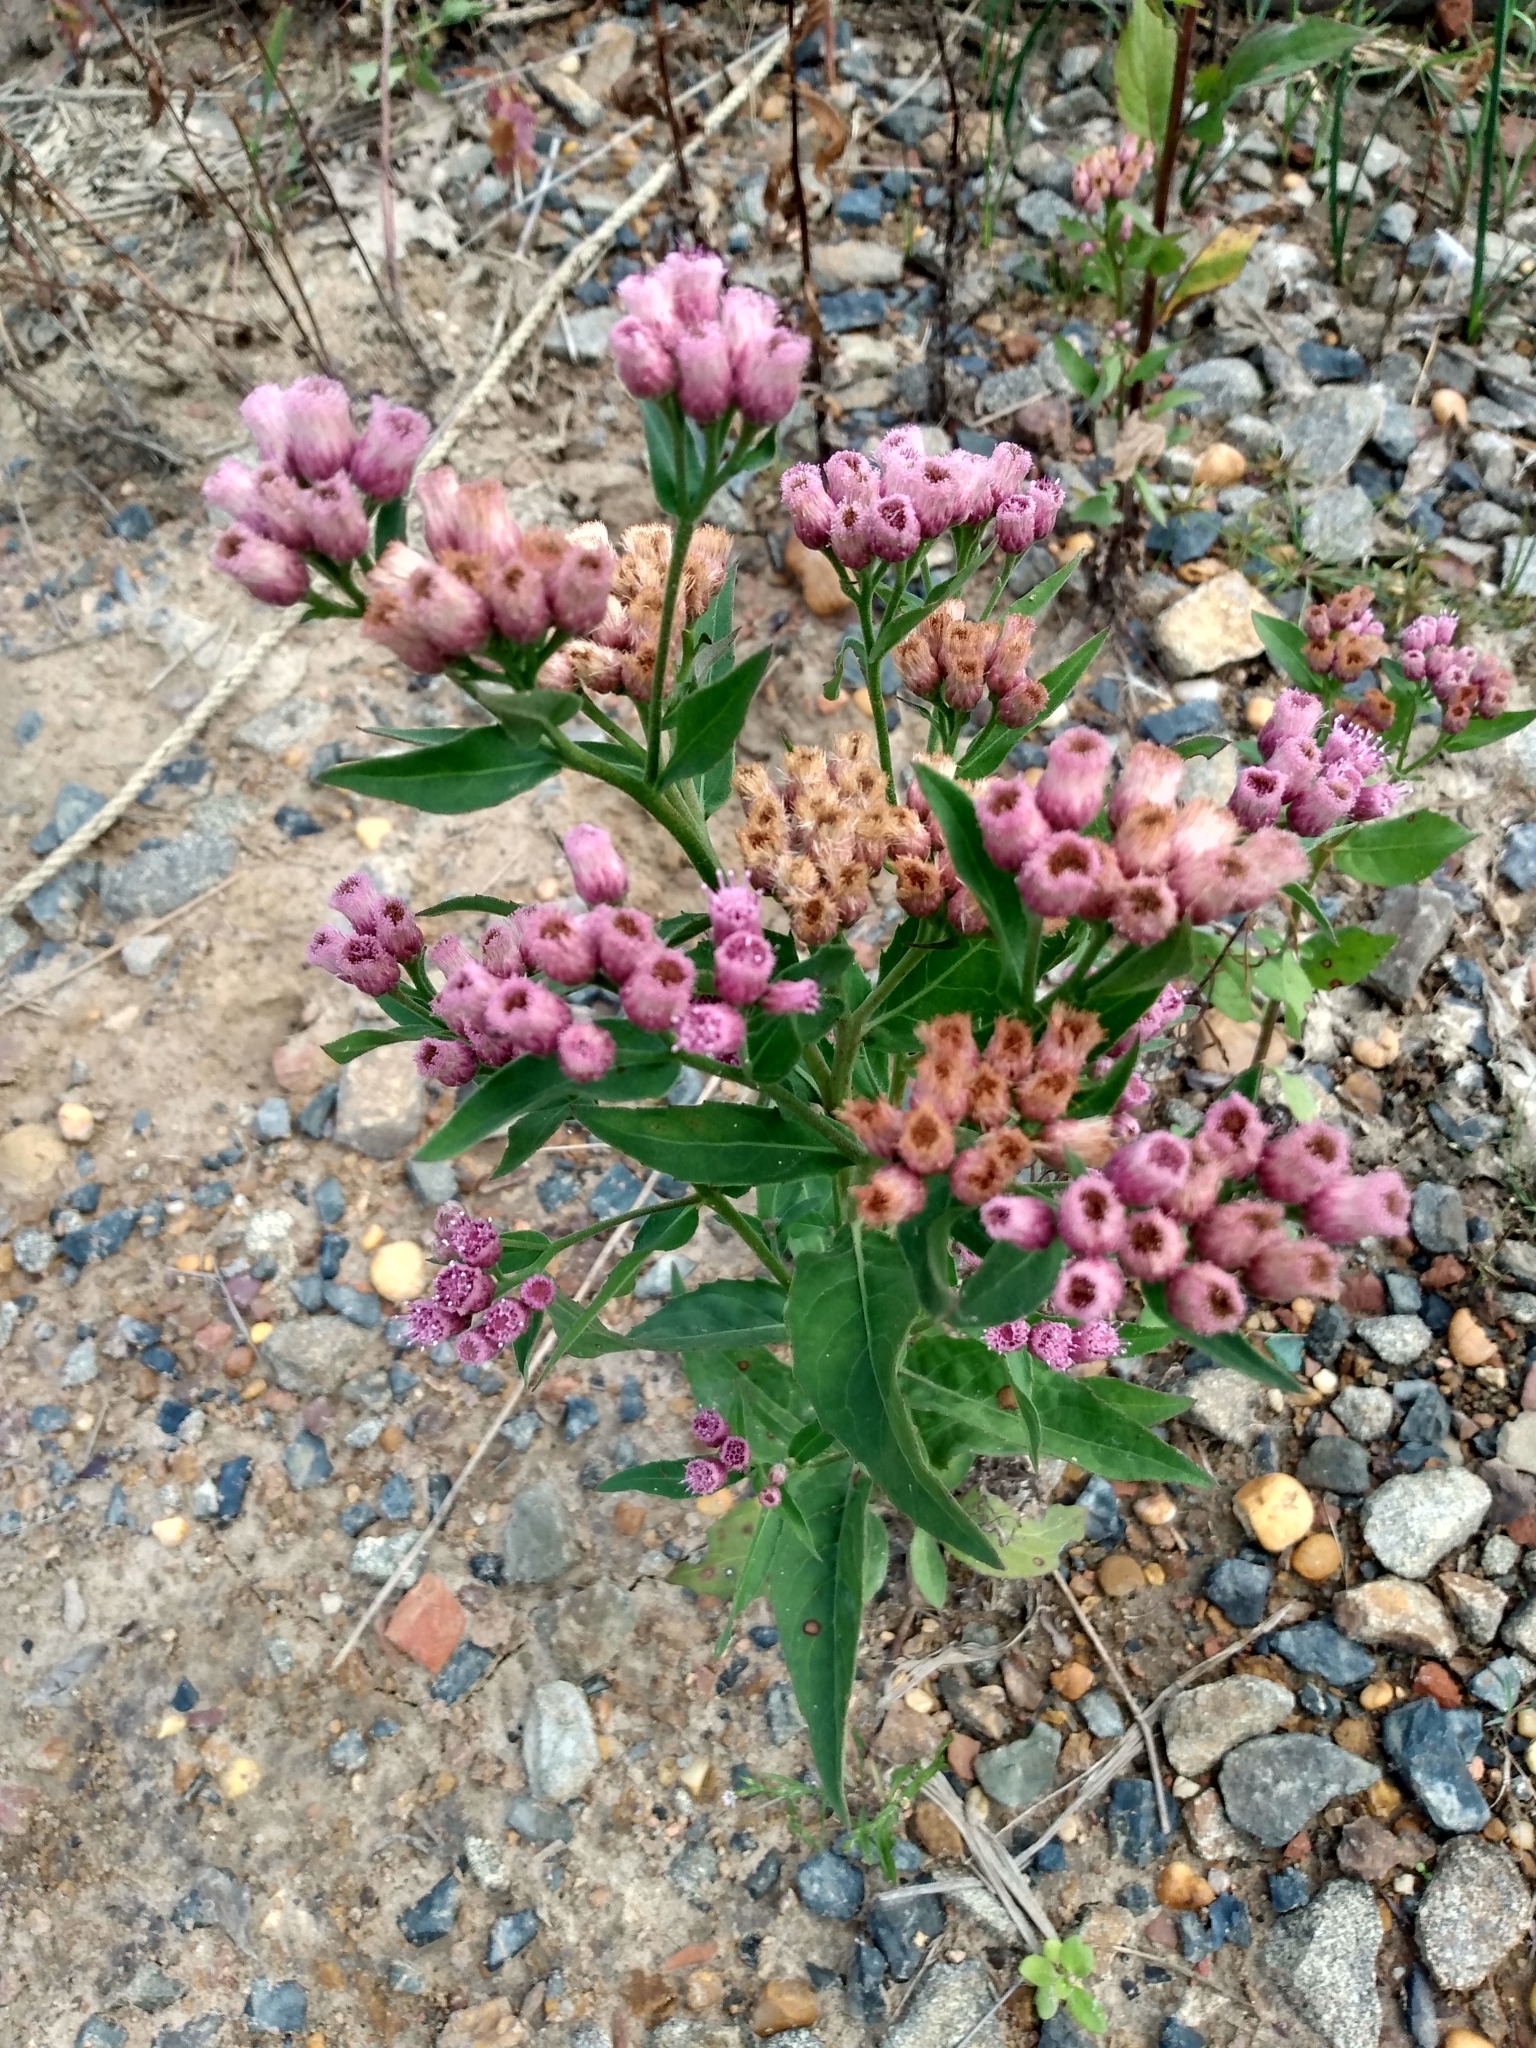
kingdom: Plantae
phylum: Tracheophyta
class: Magnoliopsida
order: Asterales
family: Asteraceae
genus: Pluchea
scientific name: Pluchea odorata
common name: Saltmarsh fleabane
